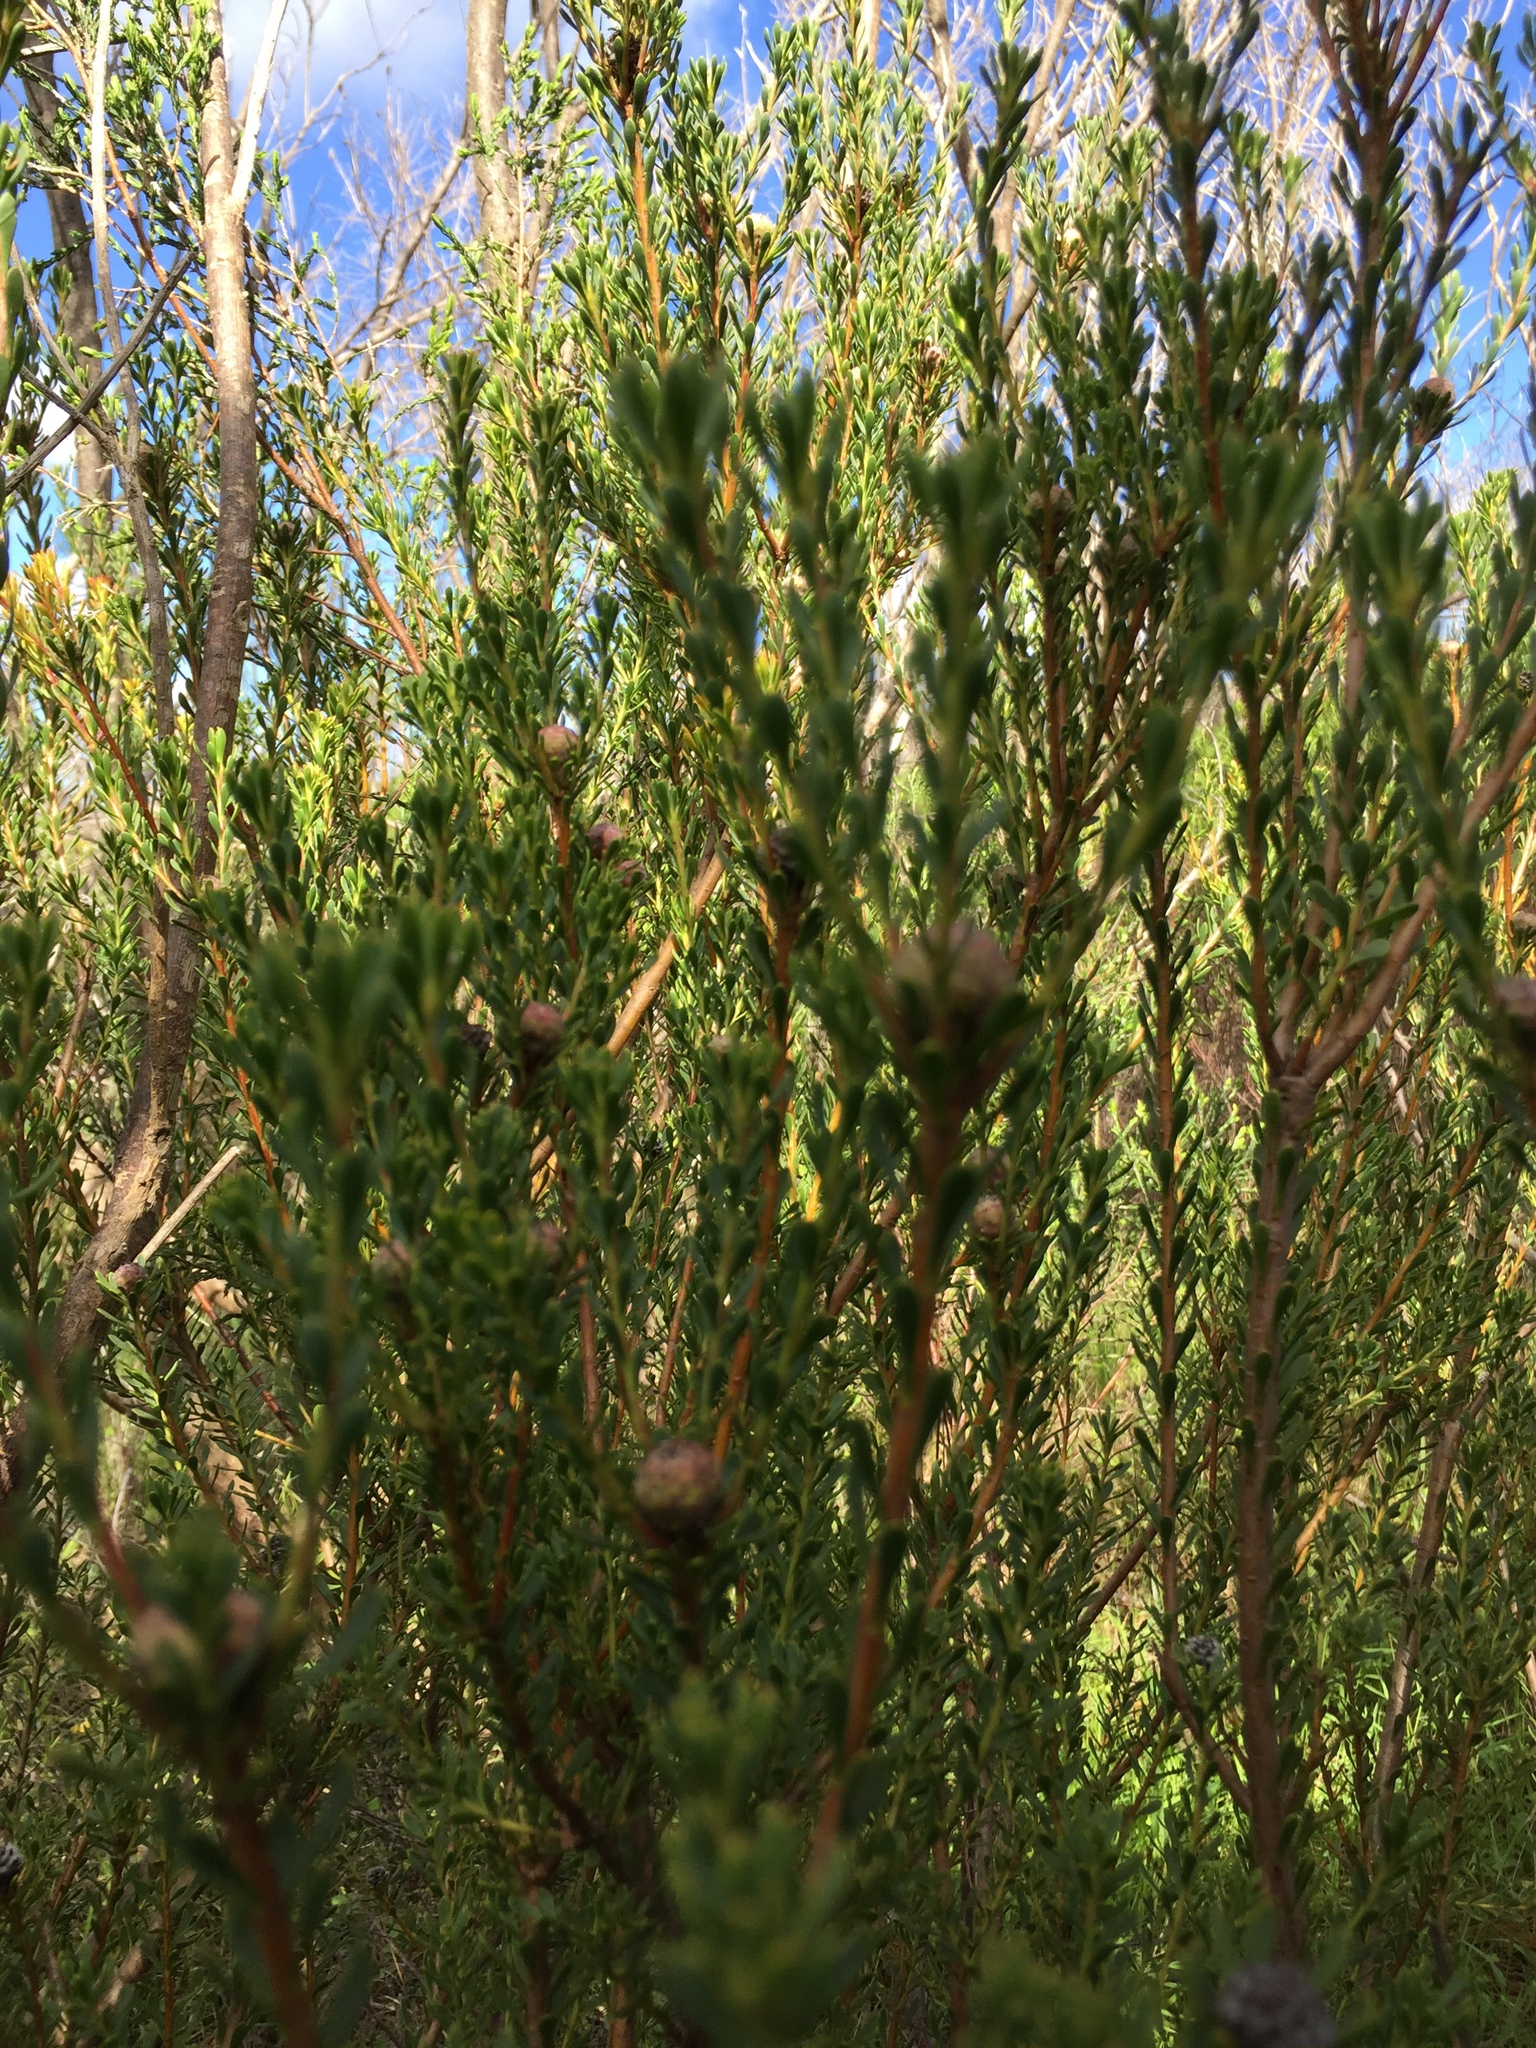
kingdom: Plantae
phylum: Tracheophyta
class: Magnoliopsida
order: Proteales
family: Proteaceae
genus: Leucadendron
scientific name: Leucadendron levisanus
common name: Cape flats conebush
